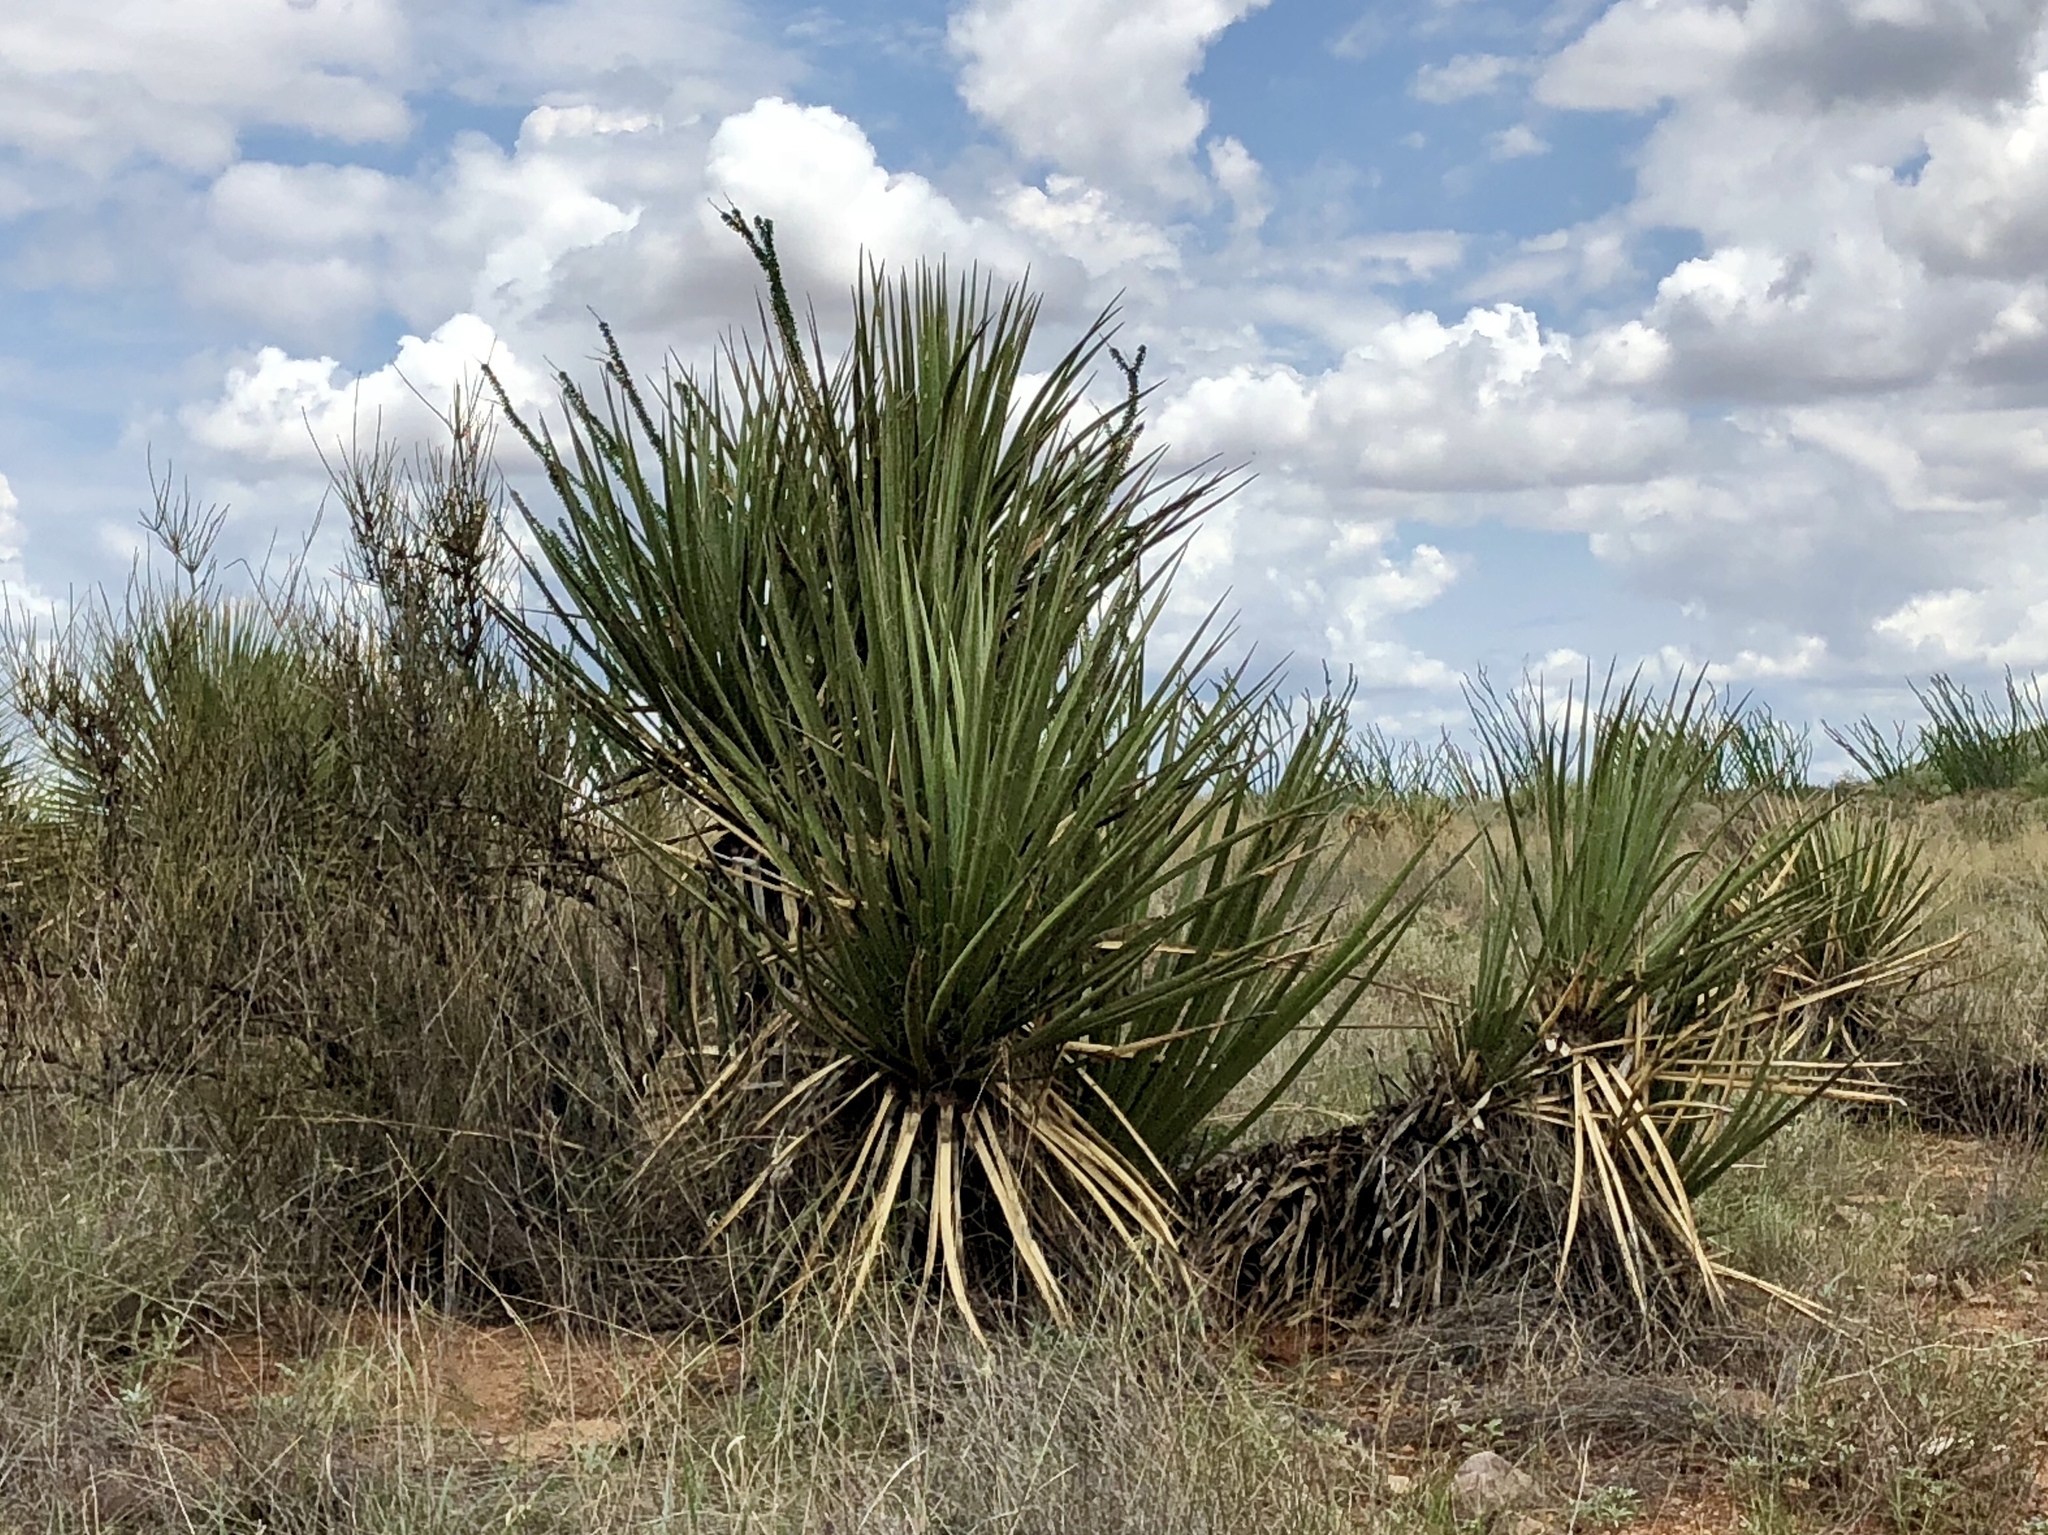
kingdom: Plantae
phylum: Tracheophyta
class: Liliopsida
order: Asparagales
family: Asparagaceae
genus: Yucca
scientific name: Yucca baccata
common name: Banana yucca
